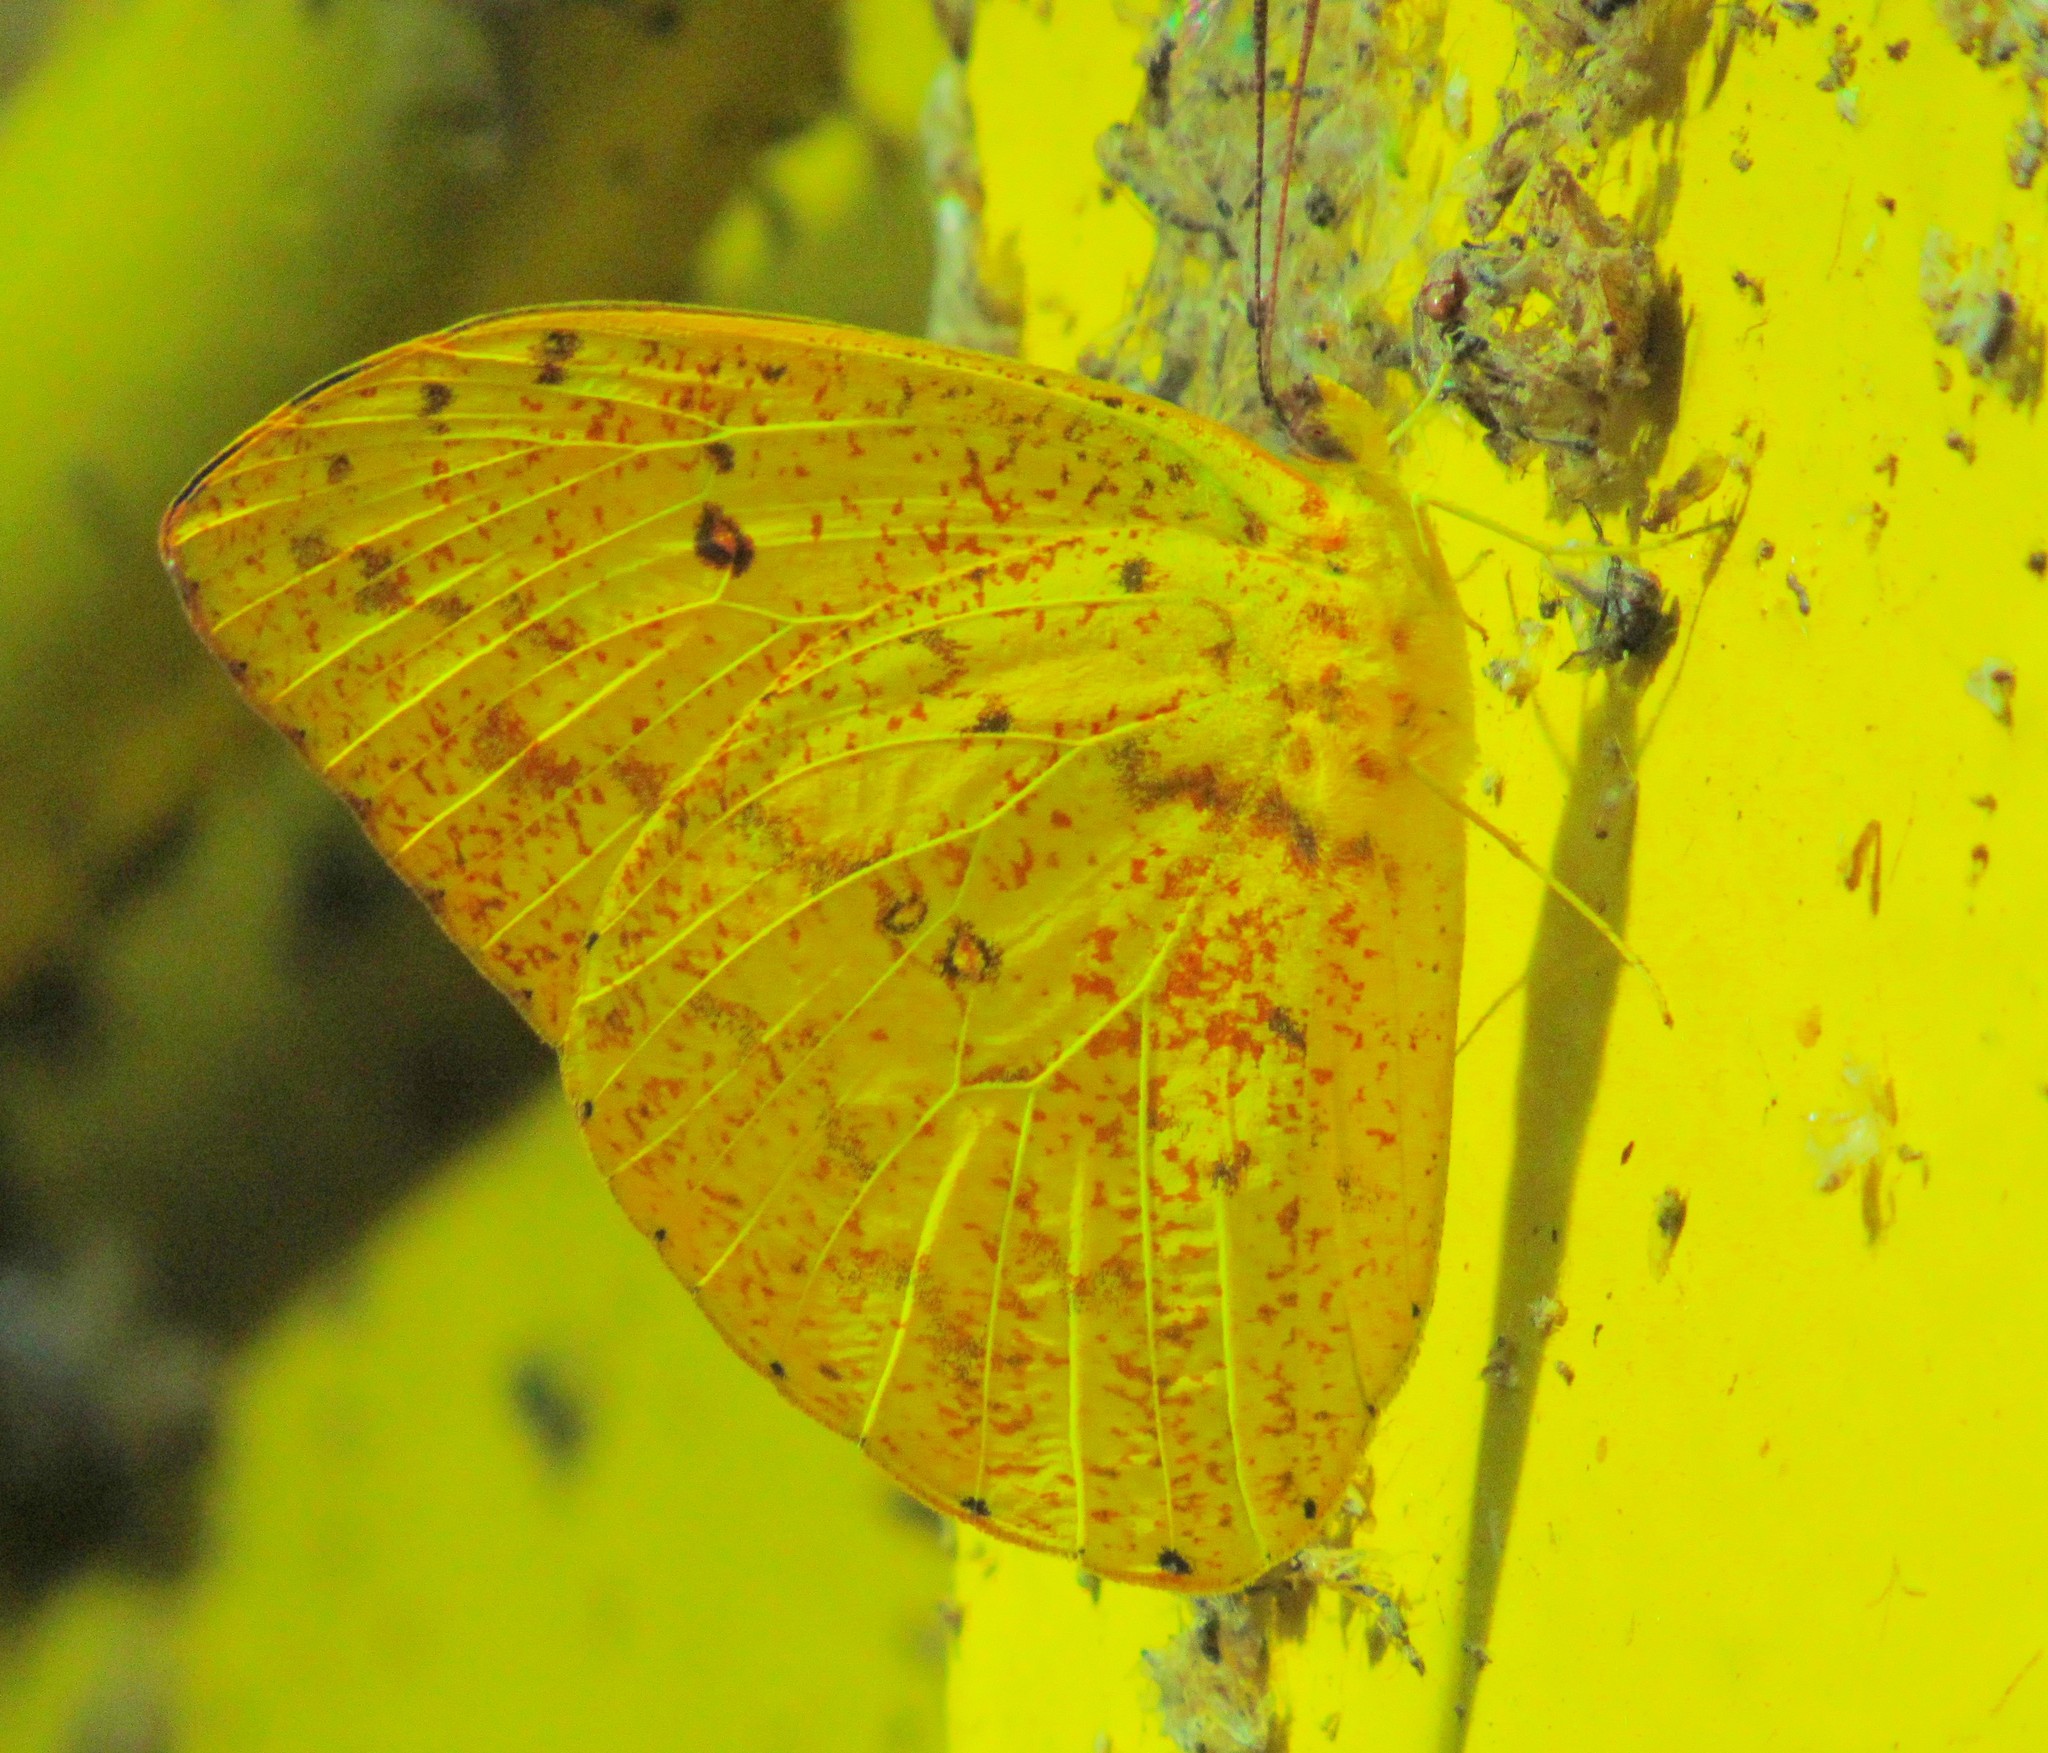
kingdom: Animalia
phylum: Arthropoda
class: Insecta
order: Lepidoptera
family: Pieridae
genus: Phoebis
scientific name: Phoebis argante
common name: Apricot sulphur
